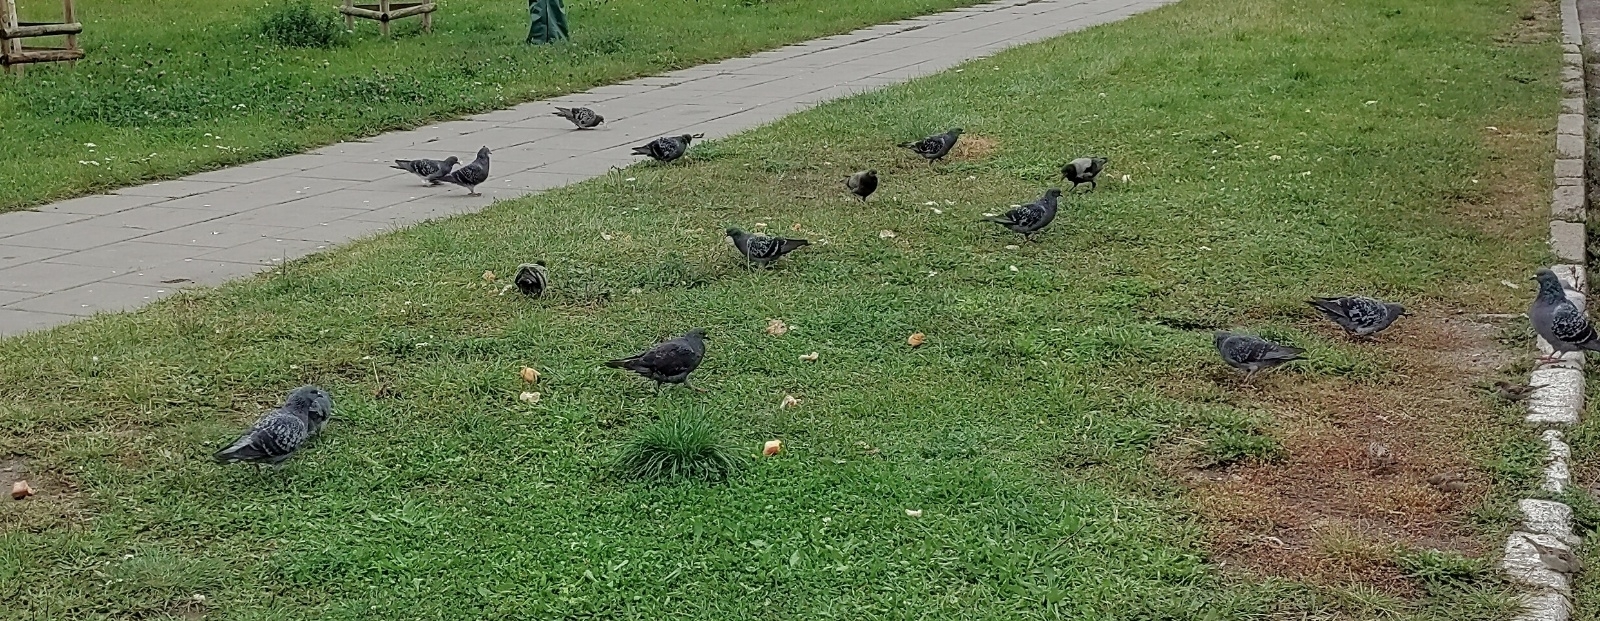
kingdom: Animalia
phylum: Chordata
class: Aves
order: Columbiformes
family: Columbidae
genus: Columba
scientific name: Columba livia
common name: Rock pigeon
